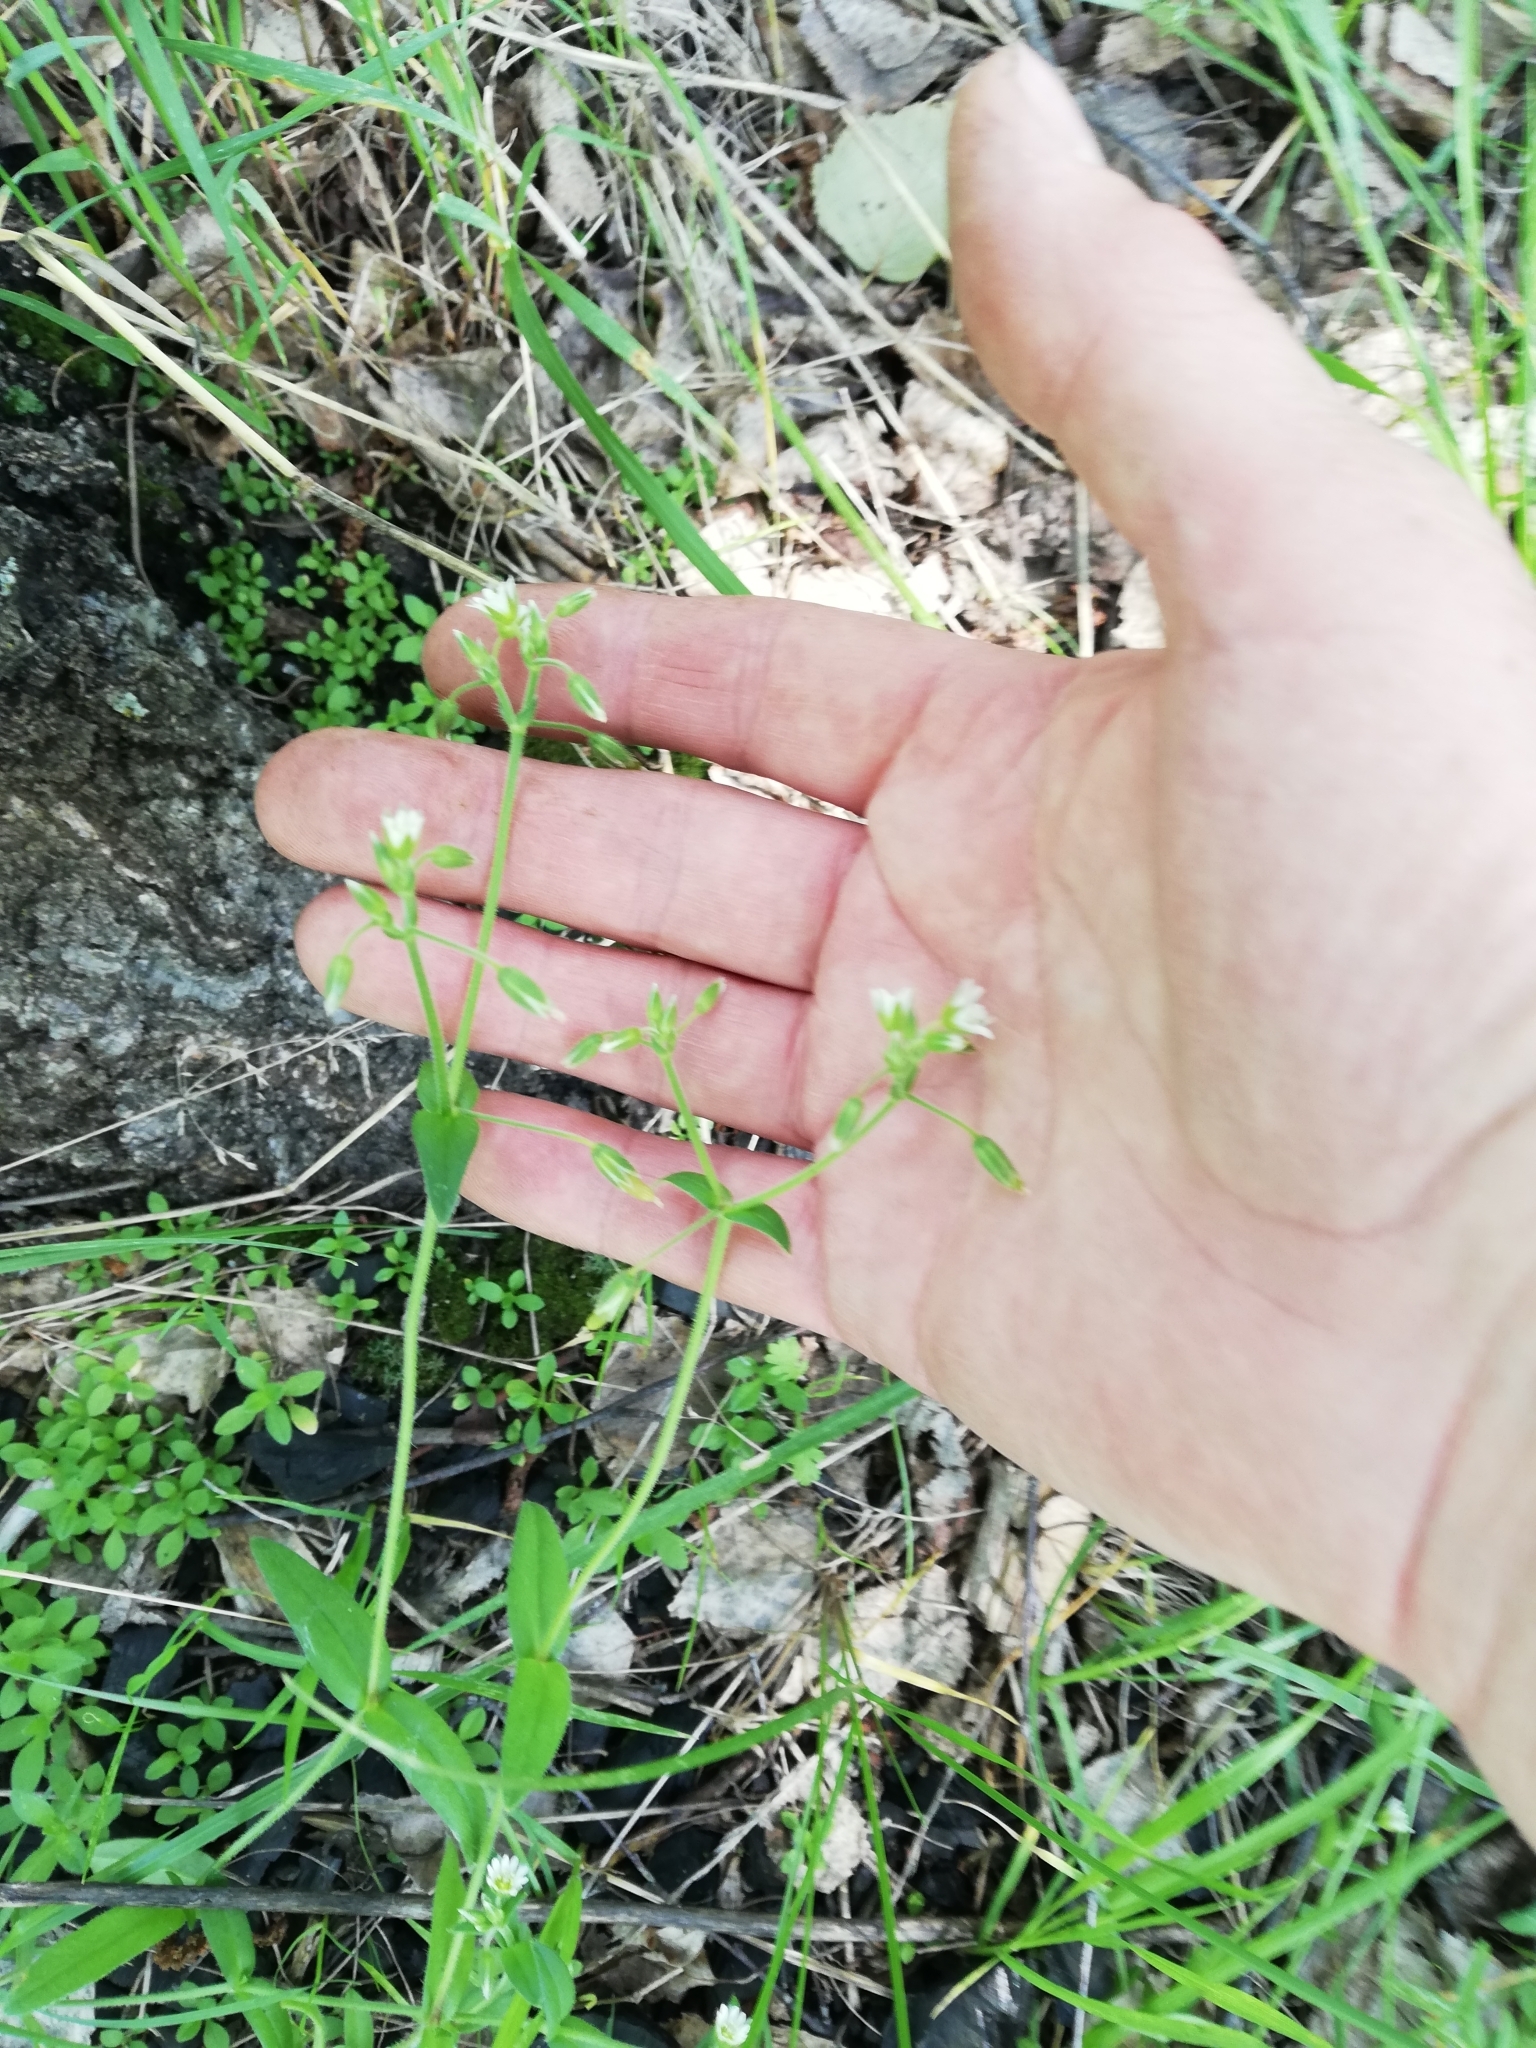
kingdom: Plantae
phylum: Tracheophyta
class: Magnoliopsida
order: Caryophyllales
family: Caryophyllaceae
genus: Cerastium
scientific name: Cerastium holosteoides
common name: Big chickweed
